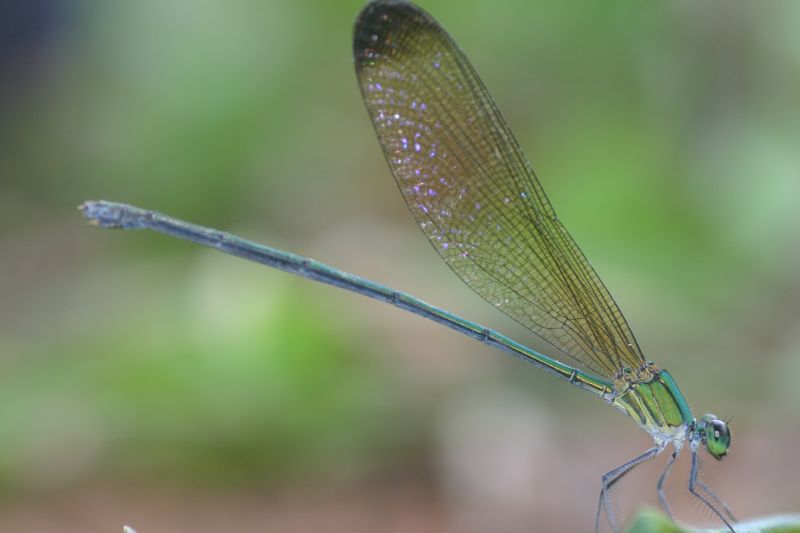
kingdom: Animalia
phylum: Arthropoda
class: Insecta
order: Odonata
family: Calopterygidae
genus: Vestalis
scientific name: Vestalis apicalis
